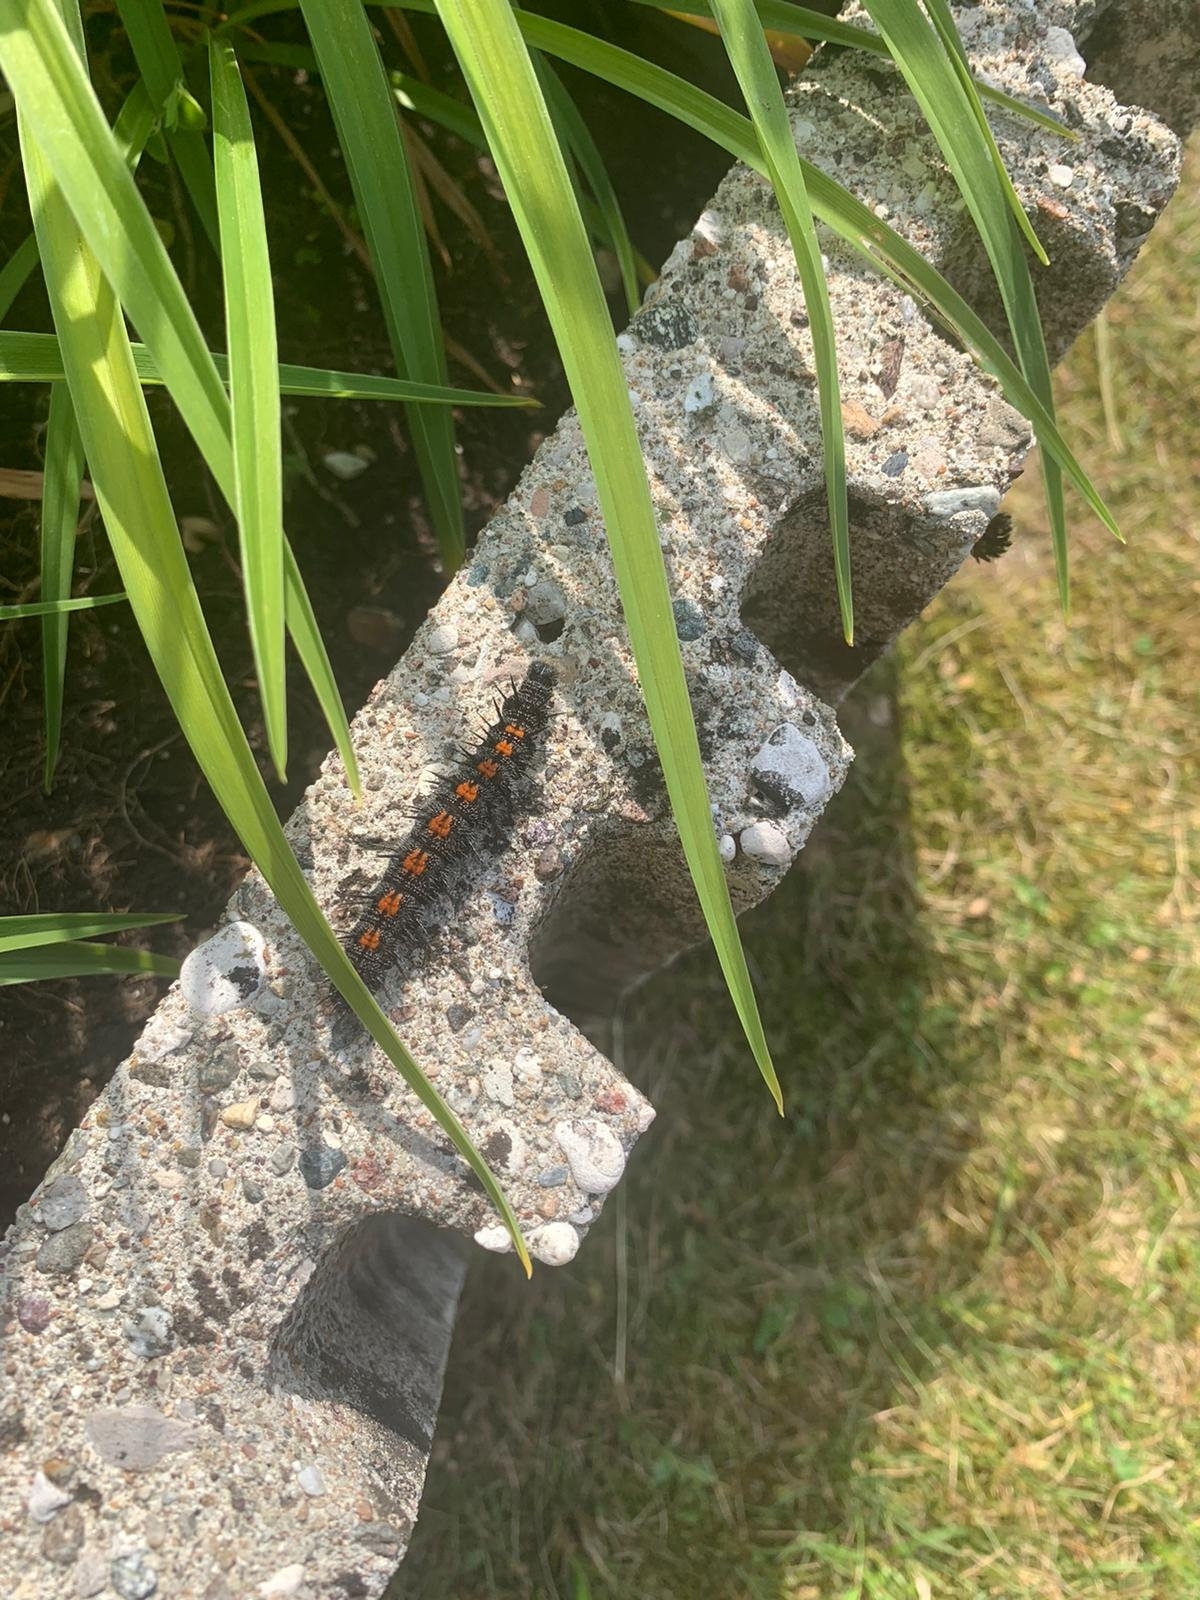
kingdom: Animalia
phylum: Arthropoda
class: Insecta
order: Lepidoptera
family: Nymphalidae
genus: Nymphalis
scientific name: Nymphalis antiopa
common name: Camberwell beauty
